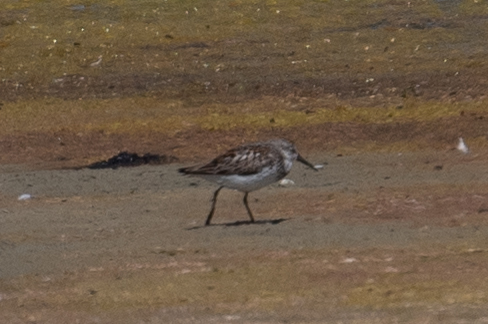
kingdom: Animalia
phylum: Chordata
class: Aves
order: Charadriiformes
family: Scolopacidae
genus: Calidris
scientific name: Calidris mauri
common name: Western sandpiper
